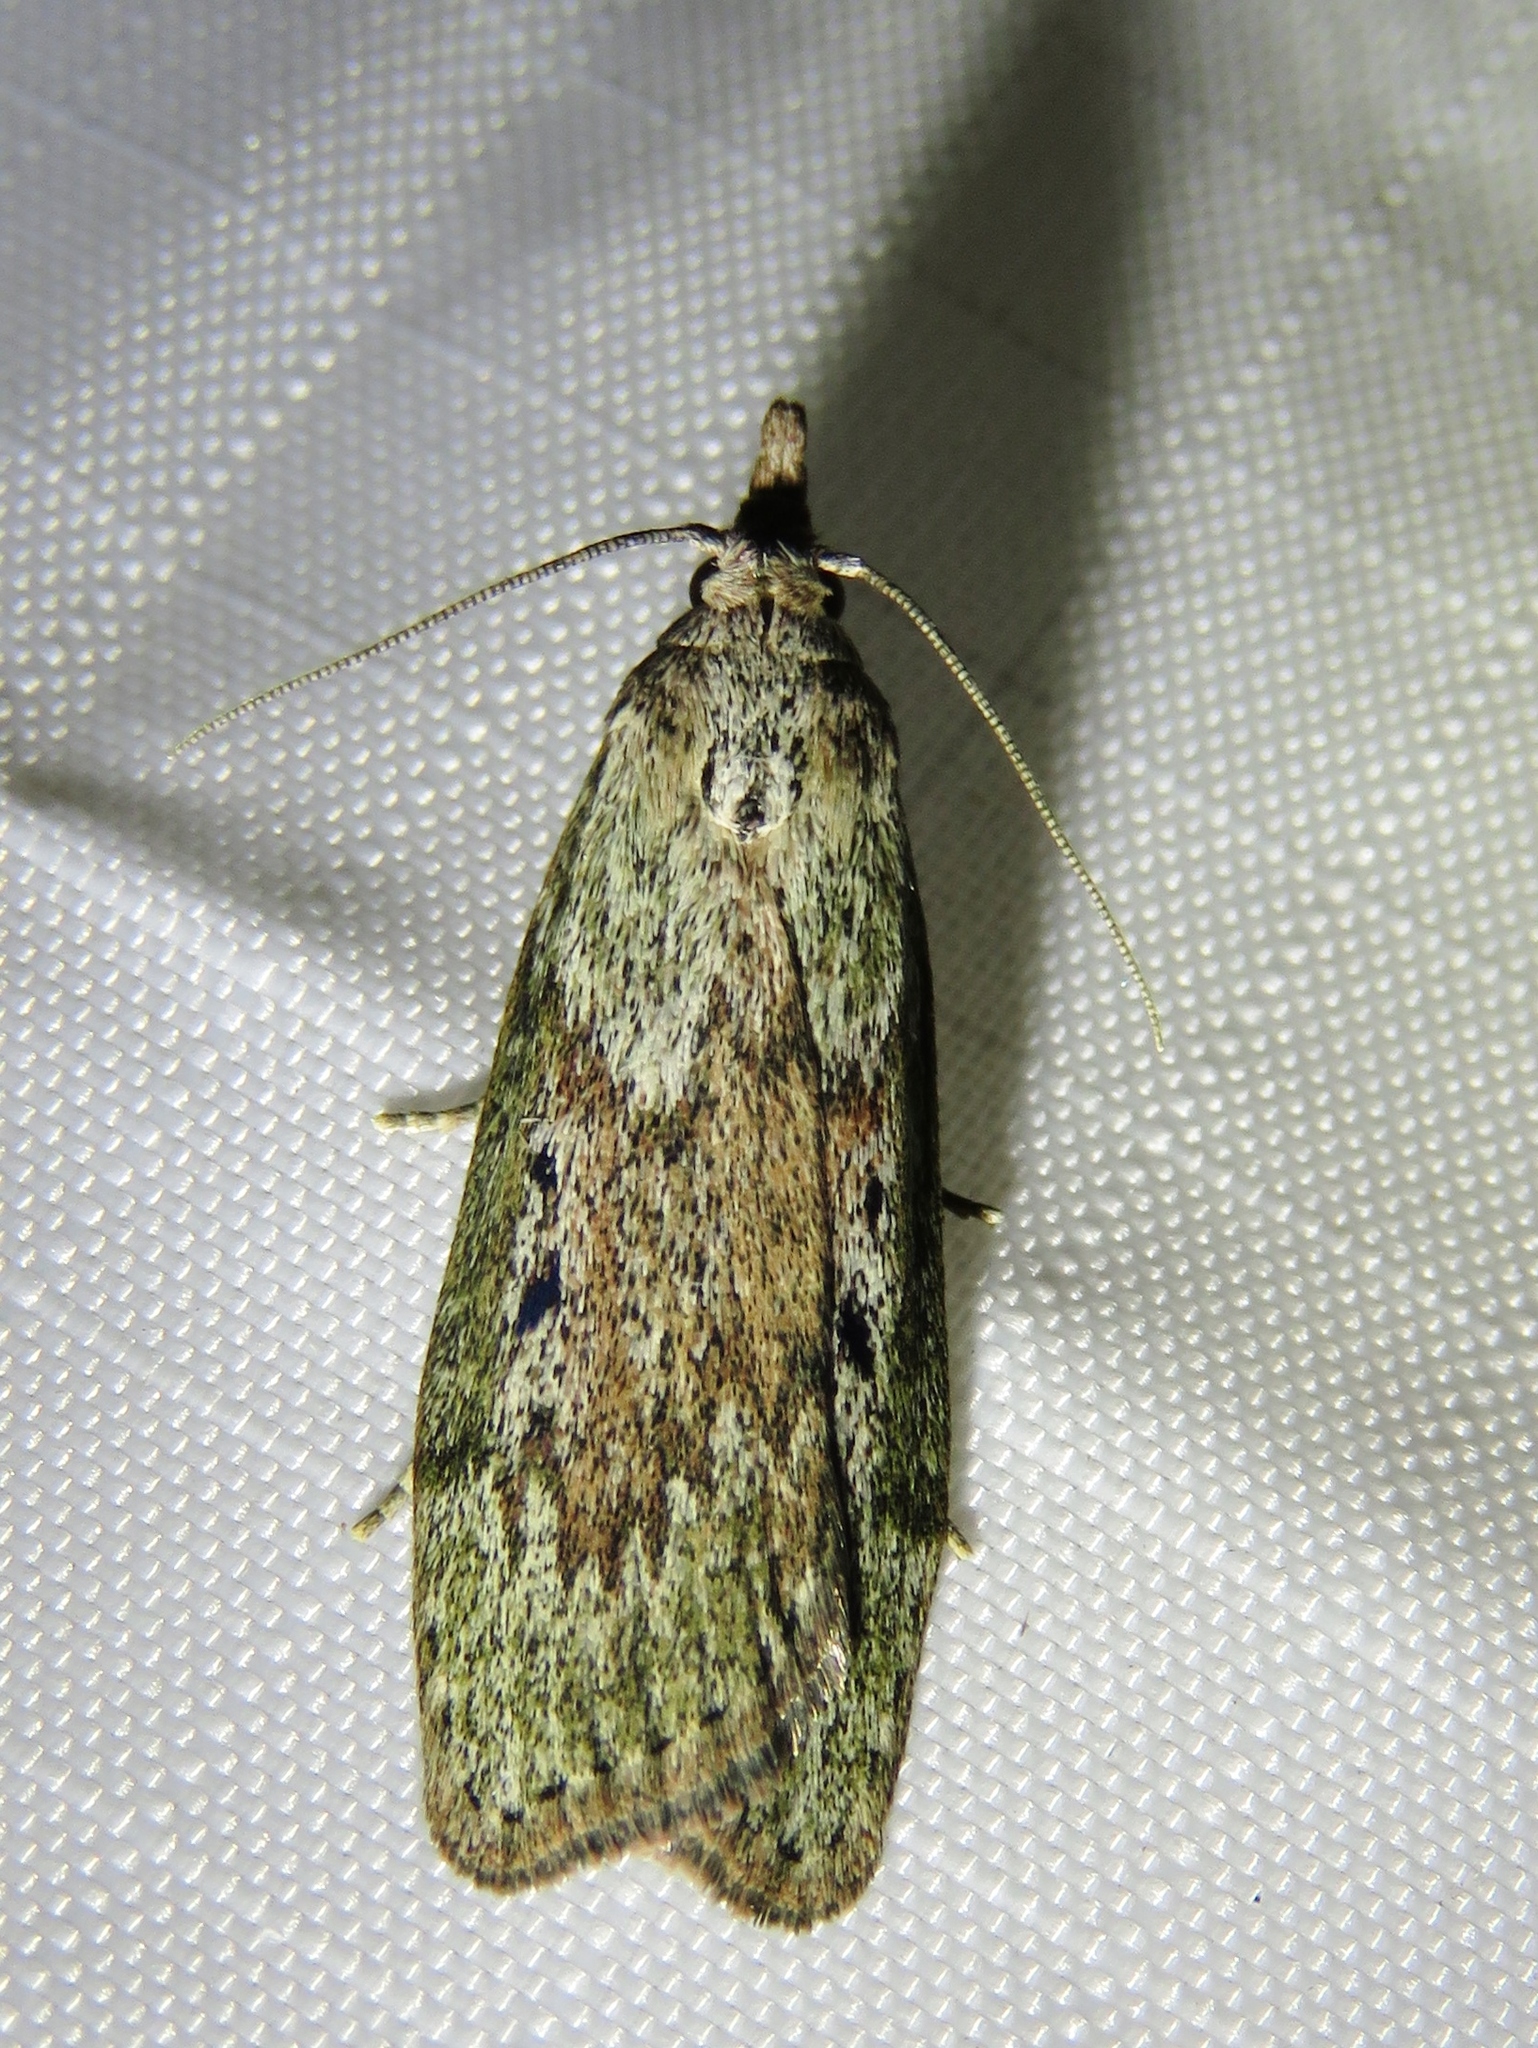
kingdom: Animalia
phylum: Arthropoda
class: Insecta
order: Lepidoptera
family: Pyralidae
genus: Aphomia
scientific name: Aphomia sociella
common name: Bee moth
